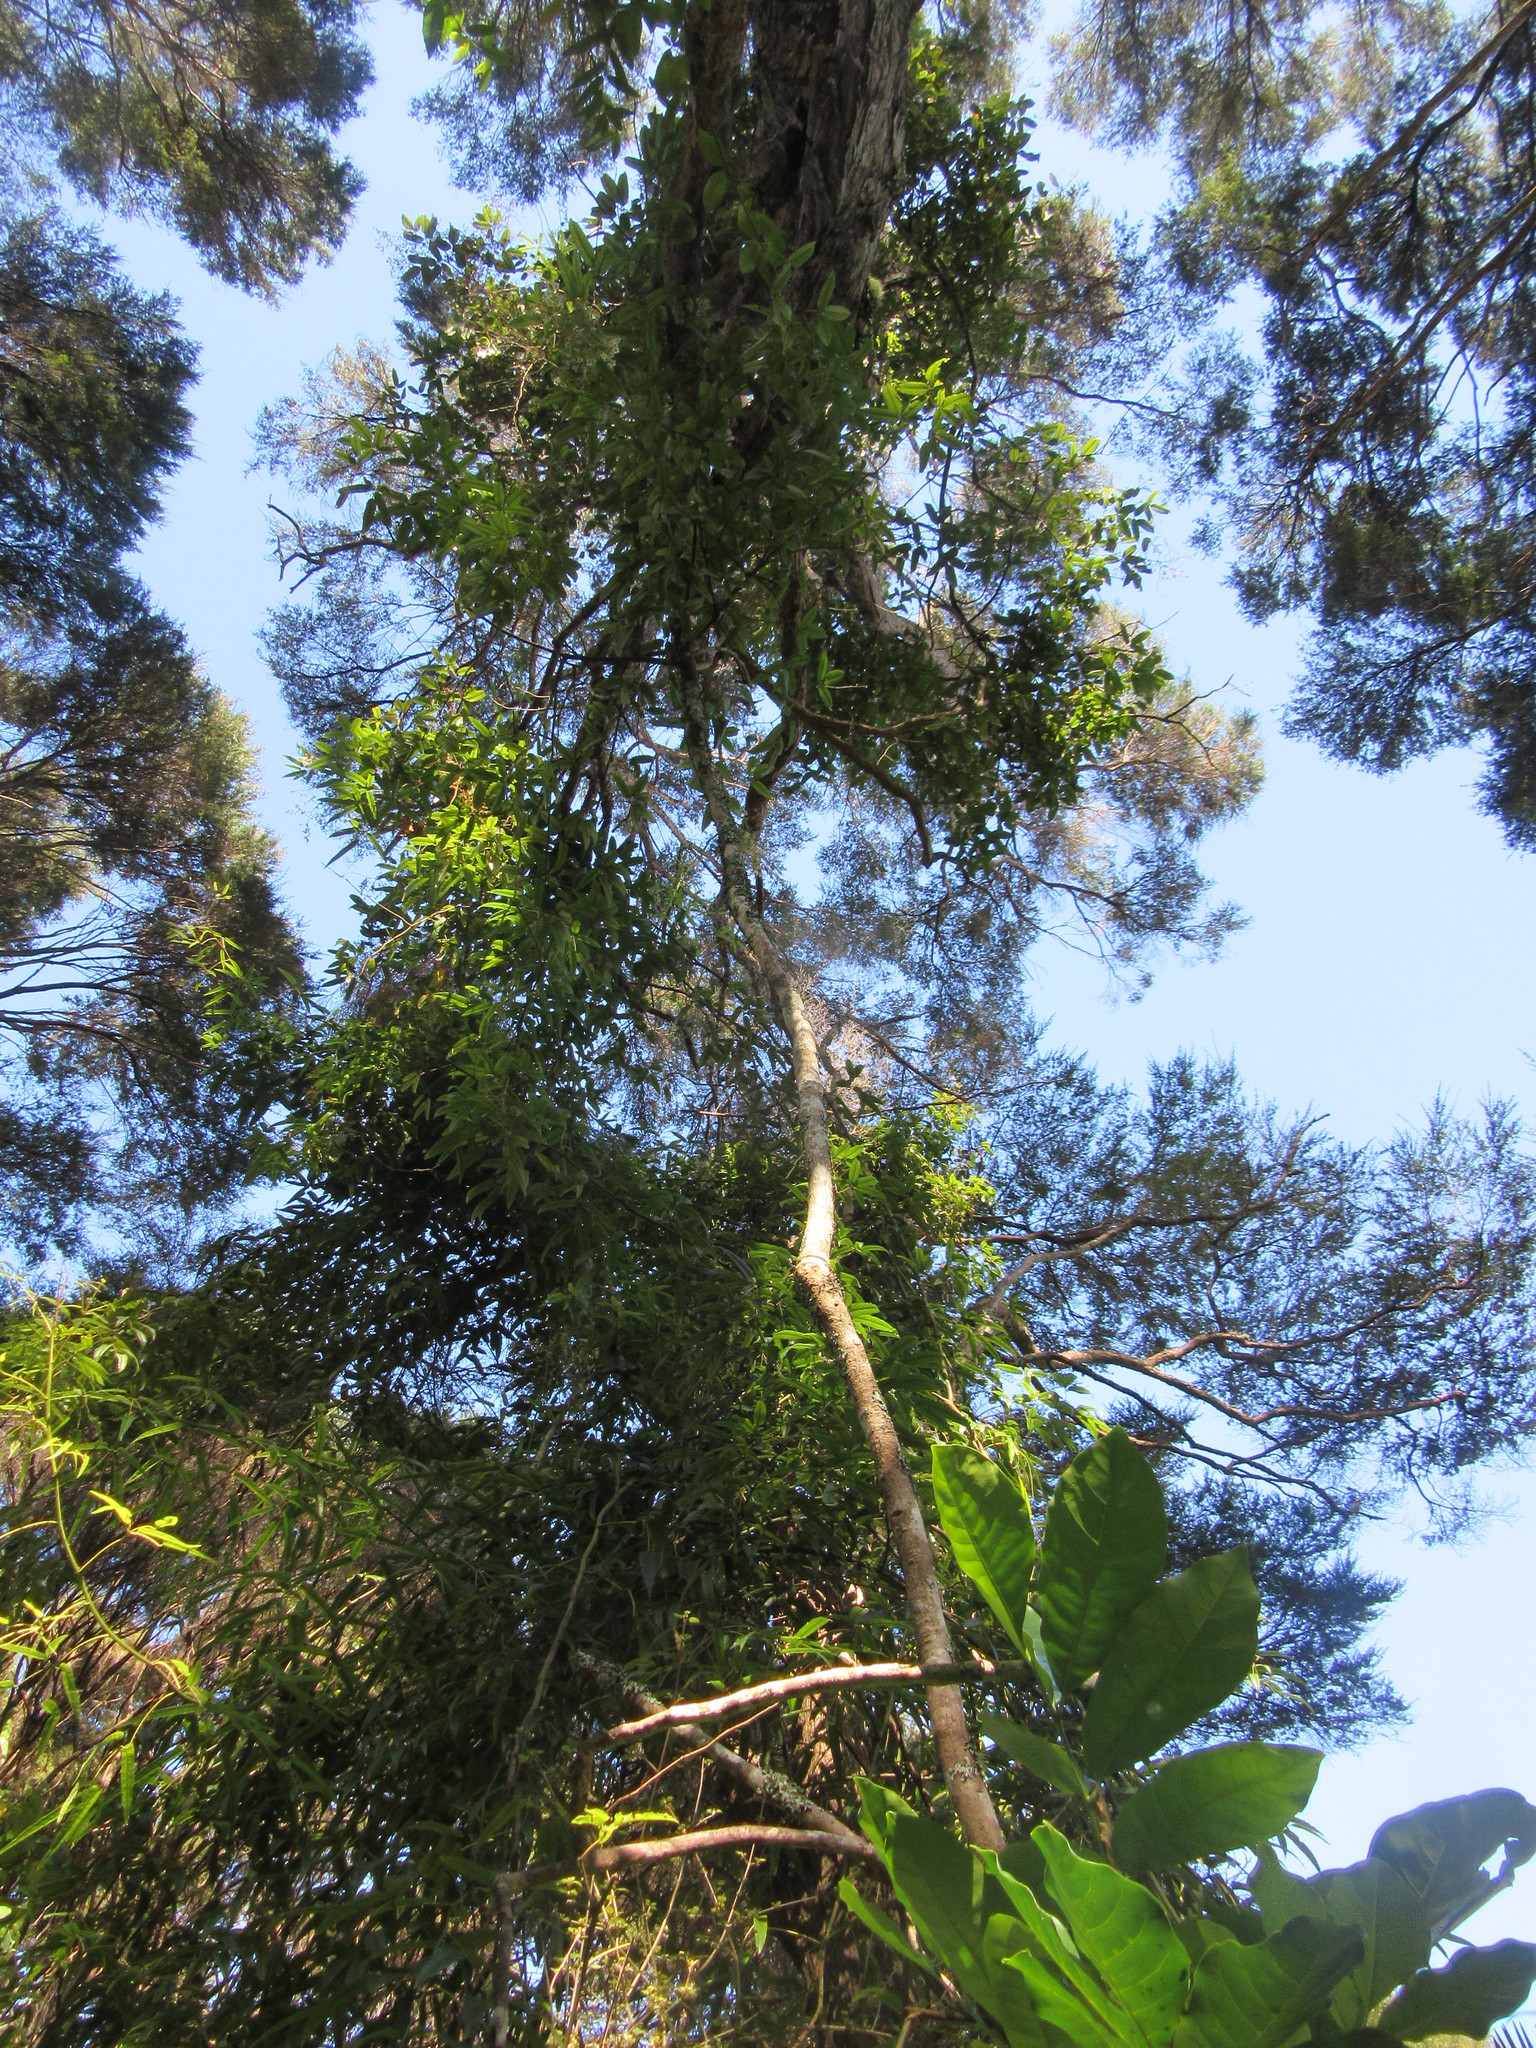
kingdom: Plantae
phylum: Tracheophyta
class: Magnoliopsida
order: Rosales
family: Rosaceae
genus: Rubus
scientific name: Rubus cissoides
